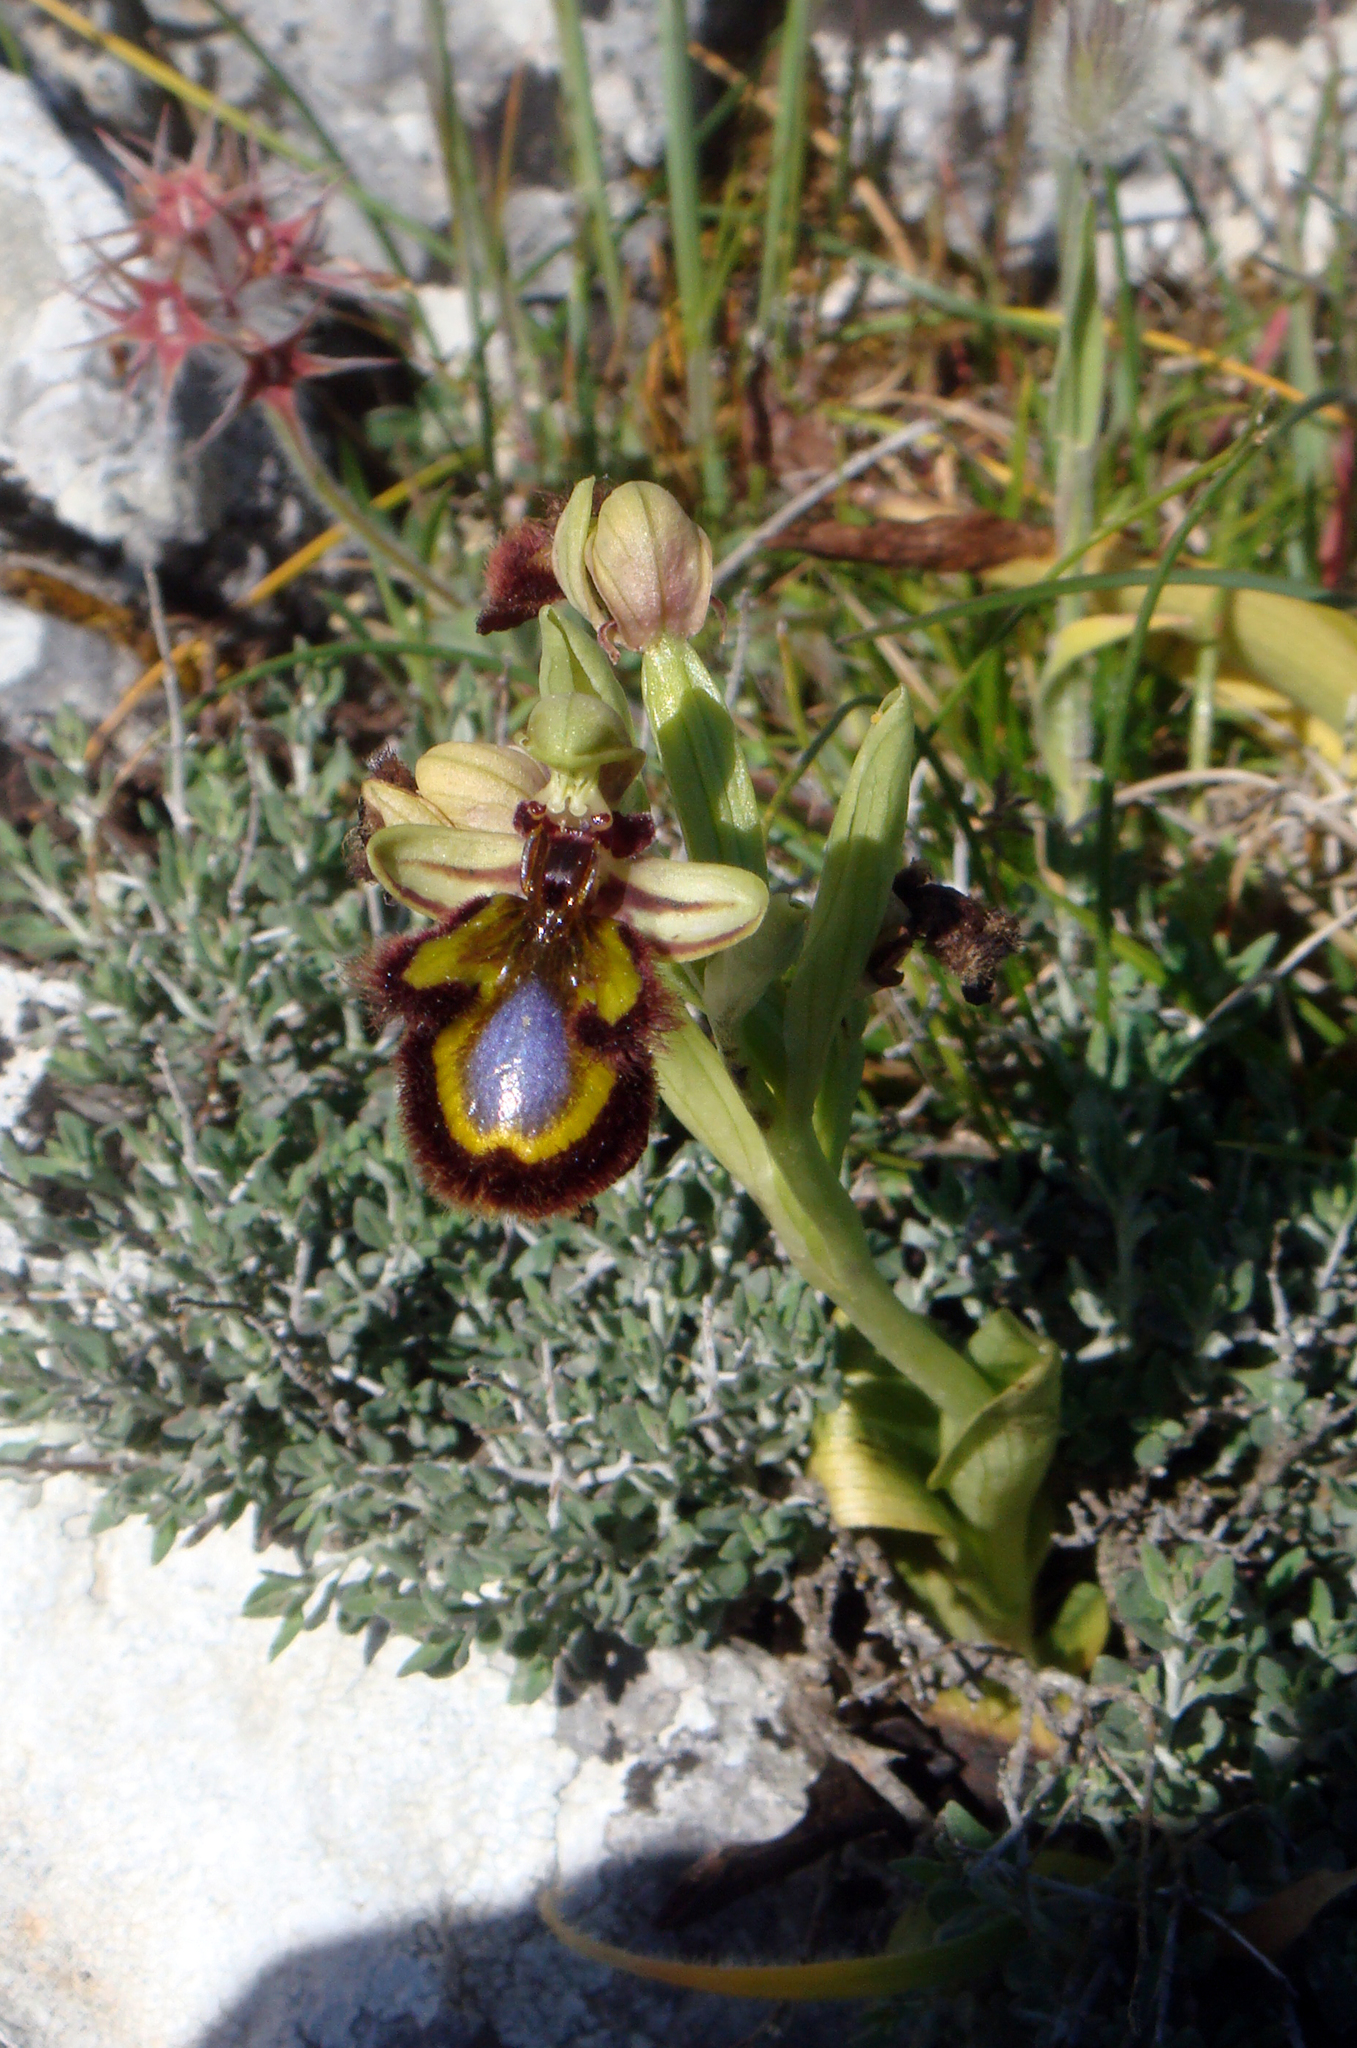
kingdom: Plantae
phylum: Tracheophyta
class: Liliopsida
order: Asparagales
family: Orchidaceae
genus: Ophrys
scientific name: Ophrys speculum
